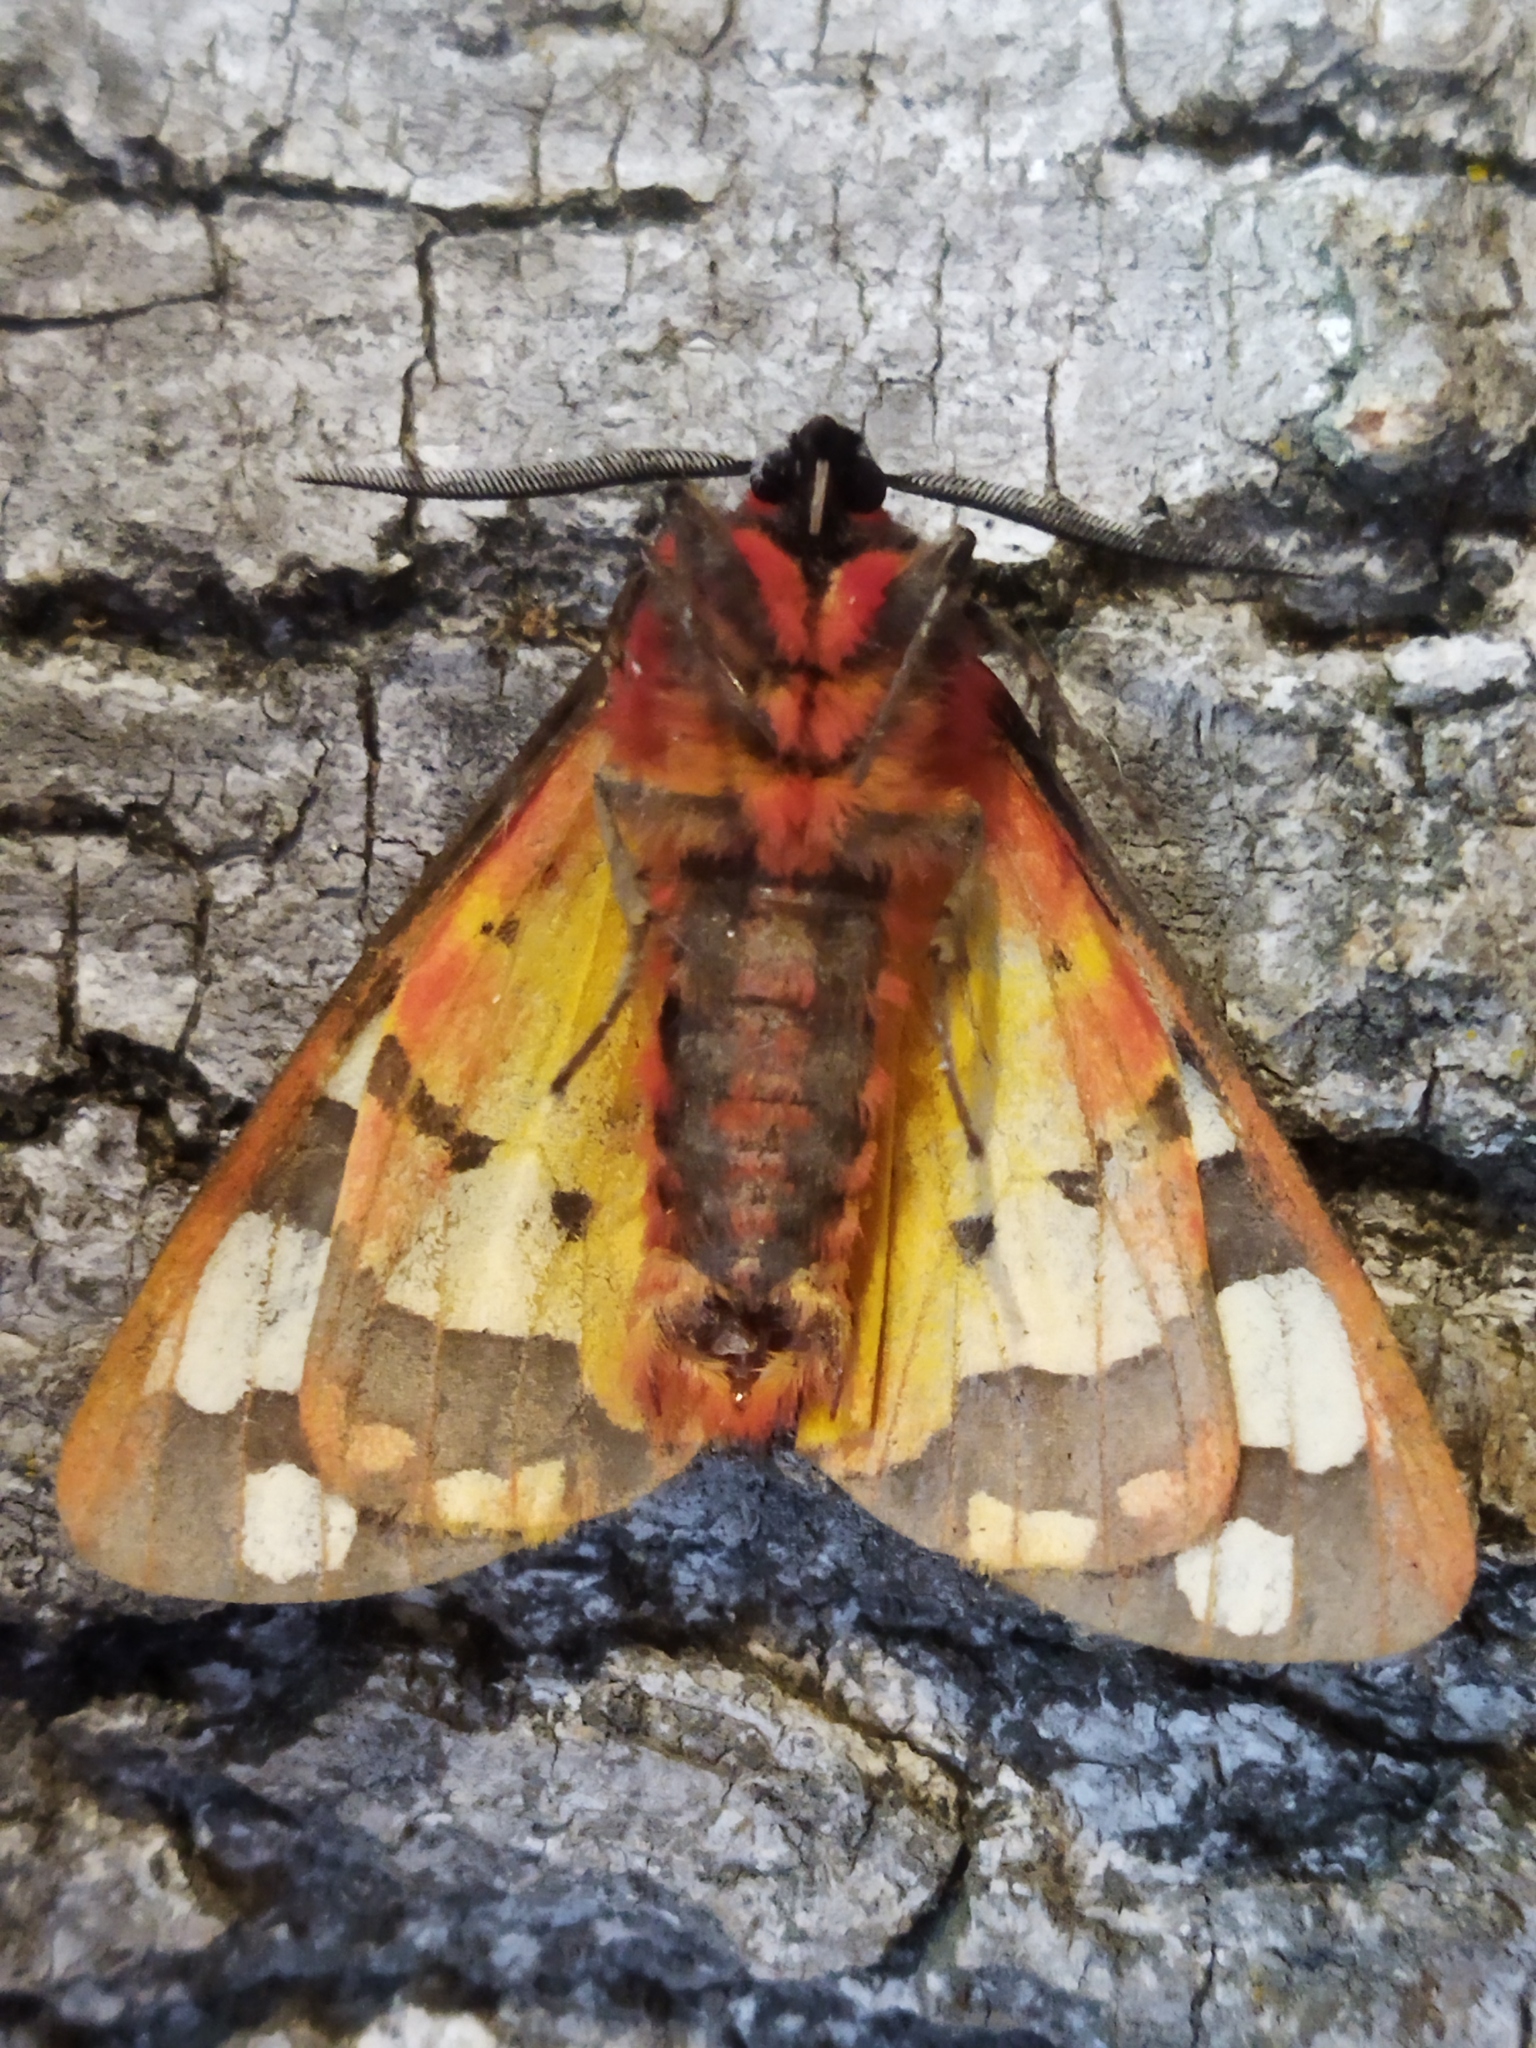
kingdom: Animalia
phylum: Arthropoda
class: Insecta
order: Lepidoptera
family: Erebidae
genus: Epicallia
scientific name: Epicallia villica
